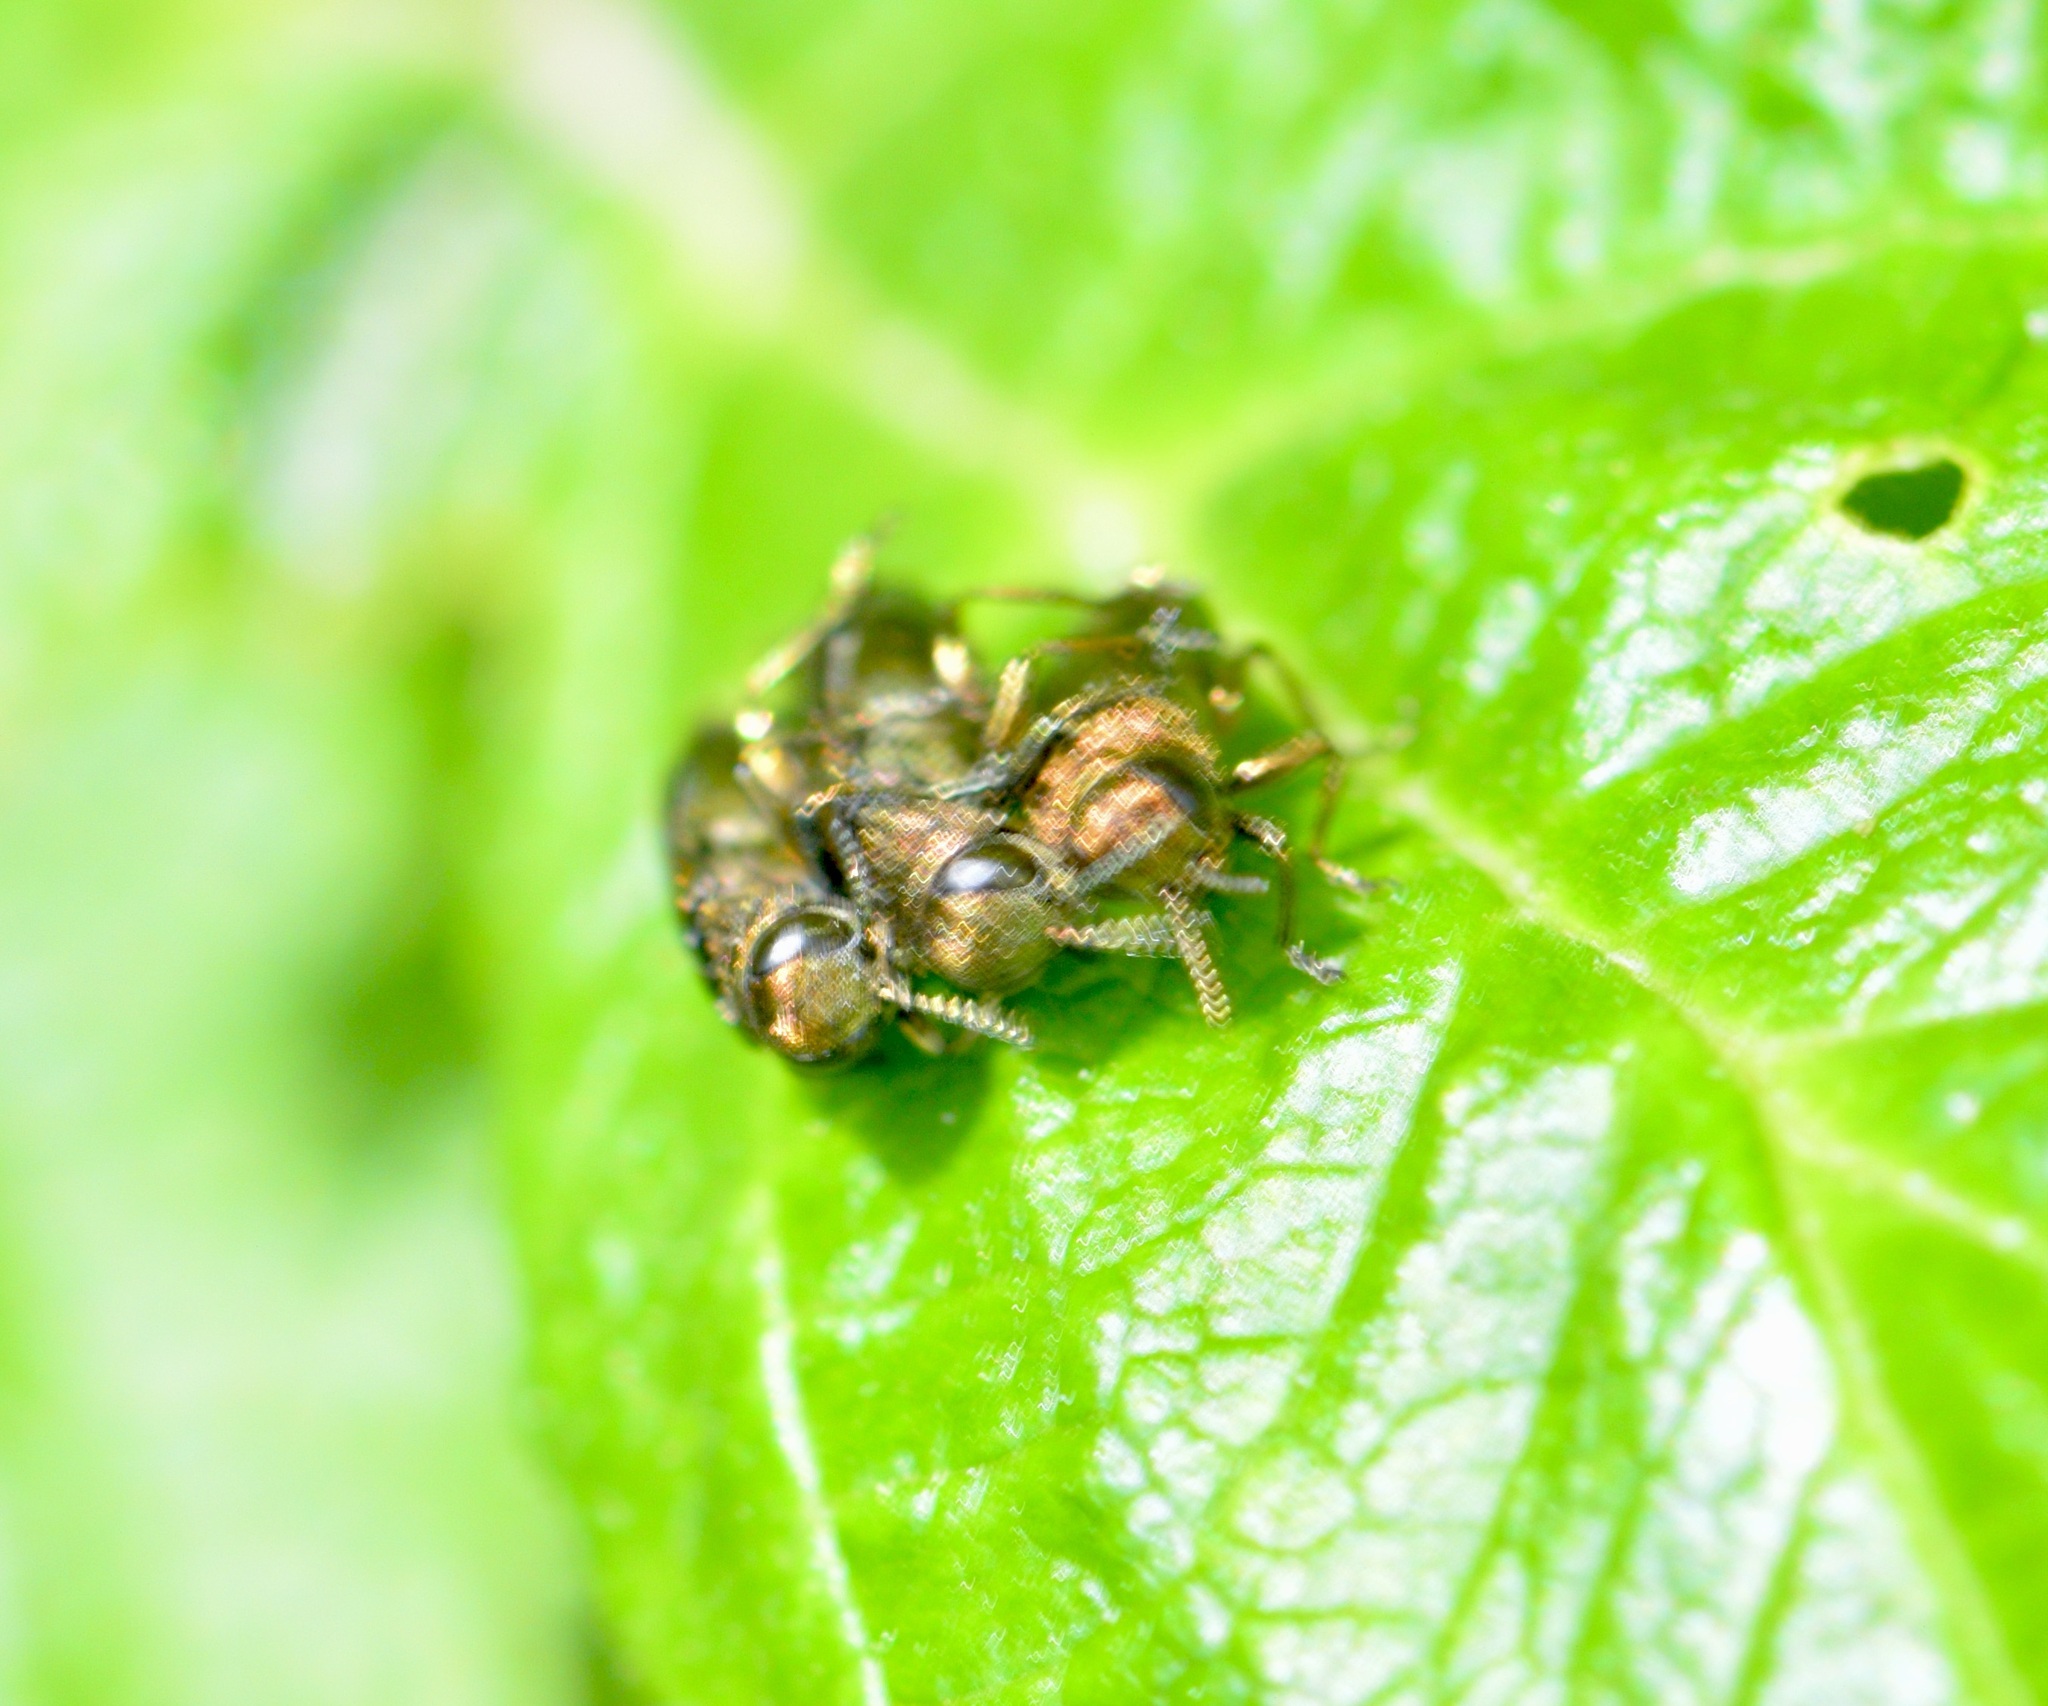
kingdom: Animalia
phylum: Arthropoda
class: Insecta
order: Coleoptera
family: Buprestidae
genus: Agrilus
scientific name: Agrilus cuprescens
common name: Rose stem girdler
